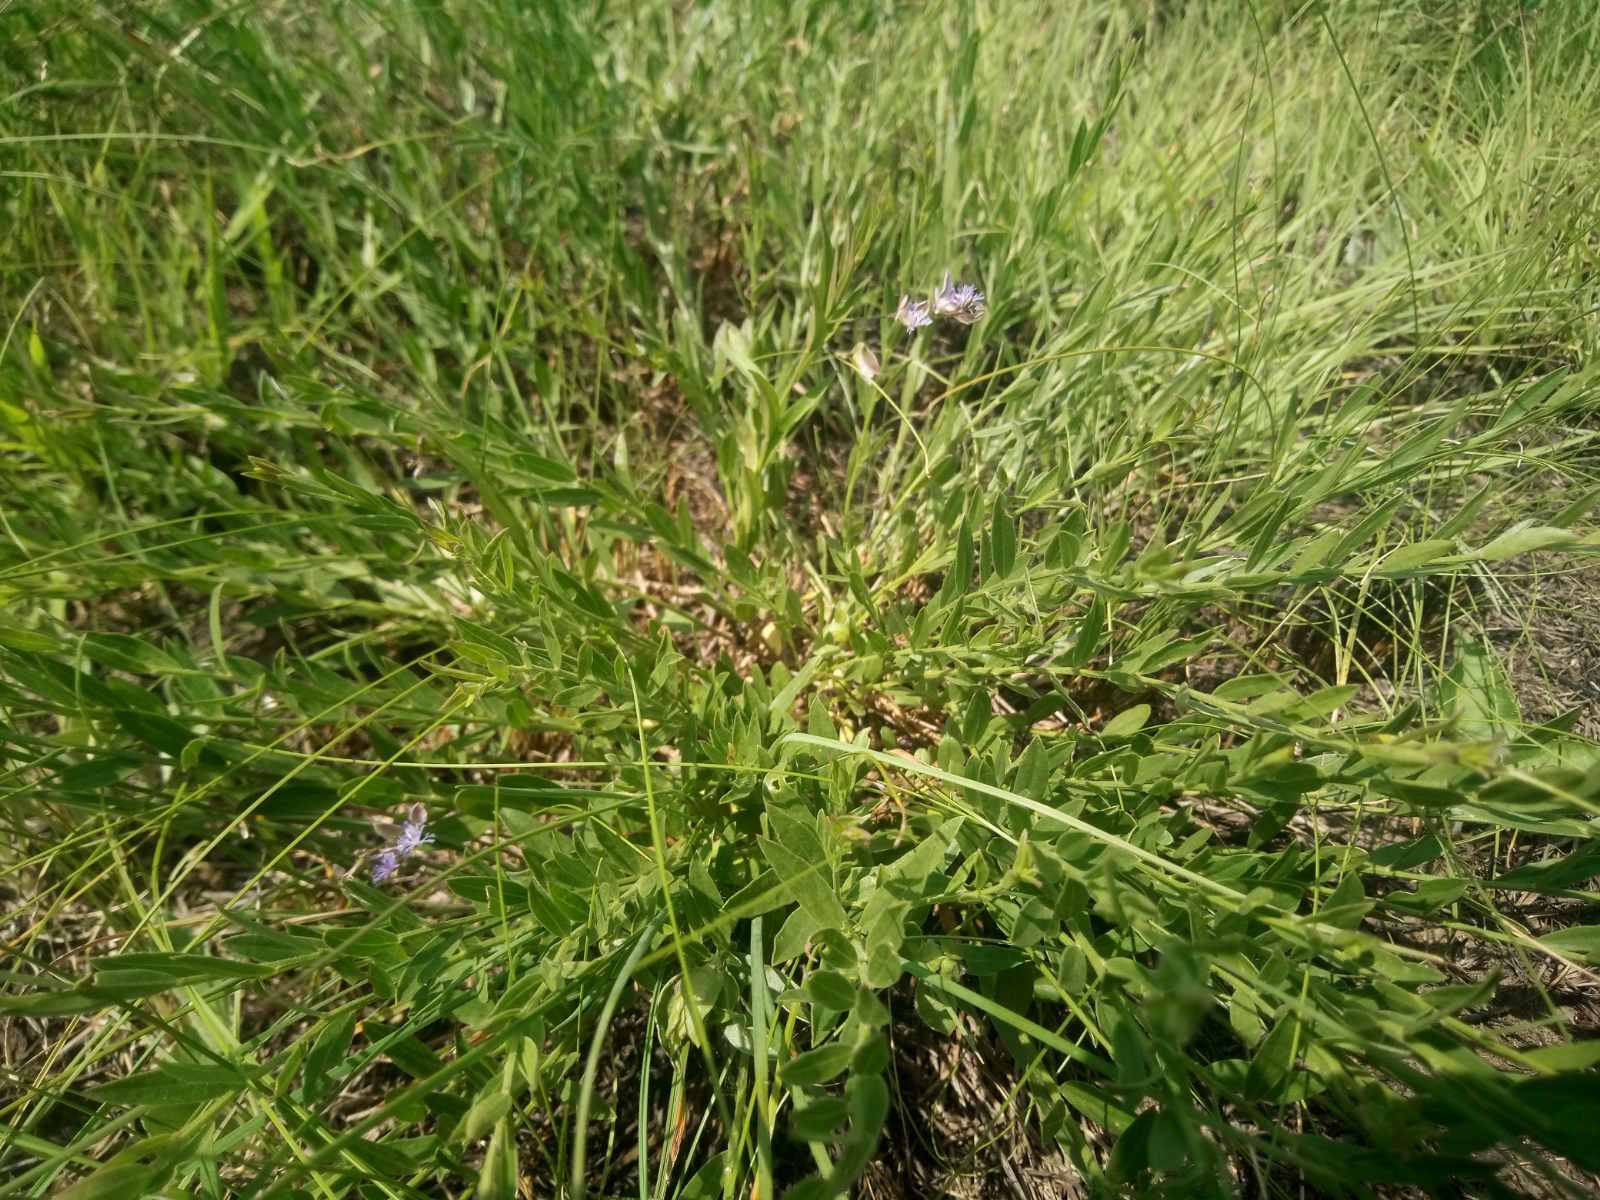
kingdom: Plantae
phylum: Tracheophyta
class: Magnoliopsida
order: Fabales
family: Polygalaceae
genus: Polygala
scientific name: Polygala sibirica
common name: Siberian polygala
